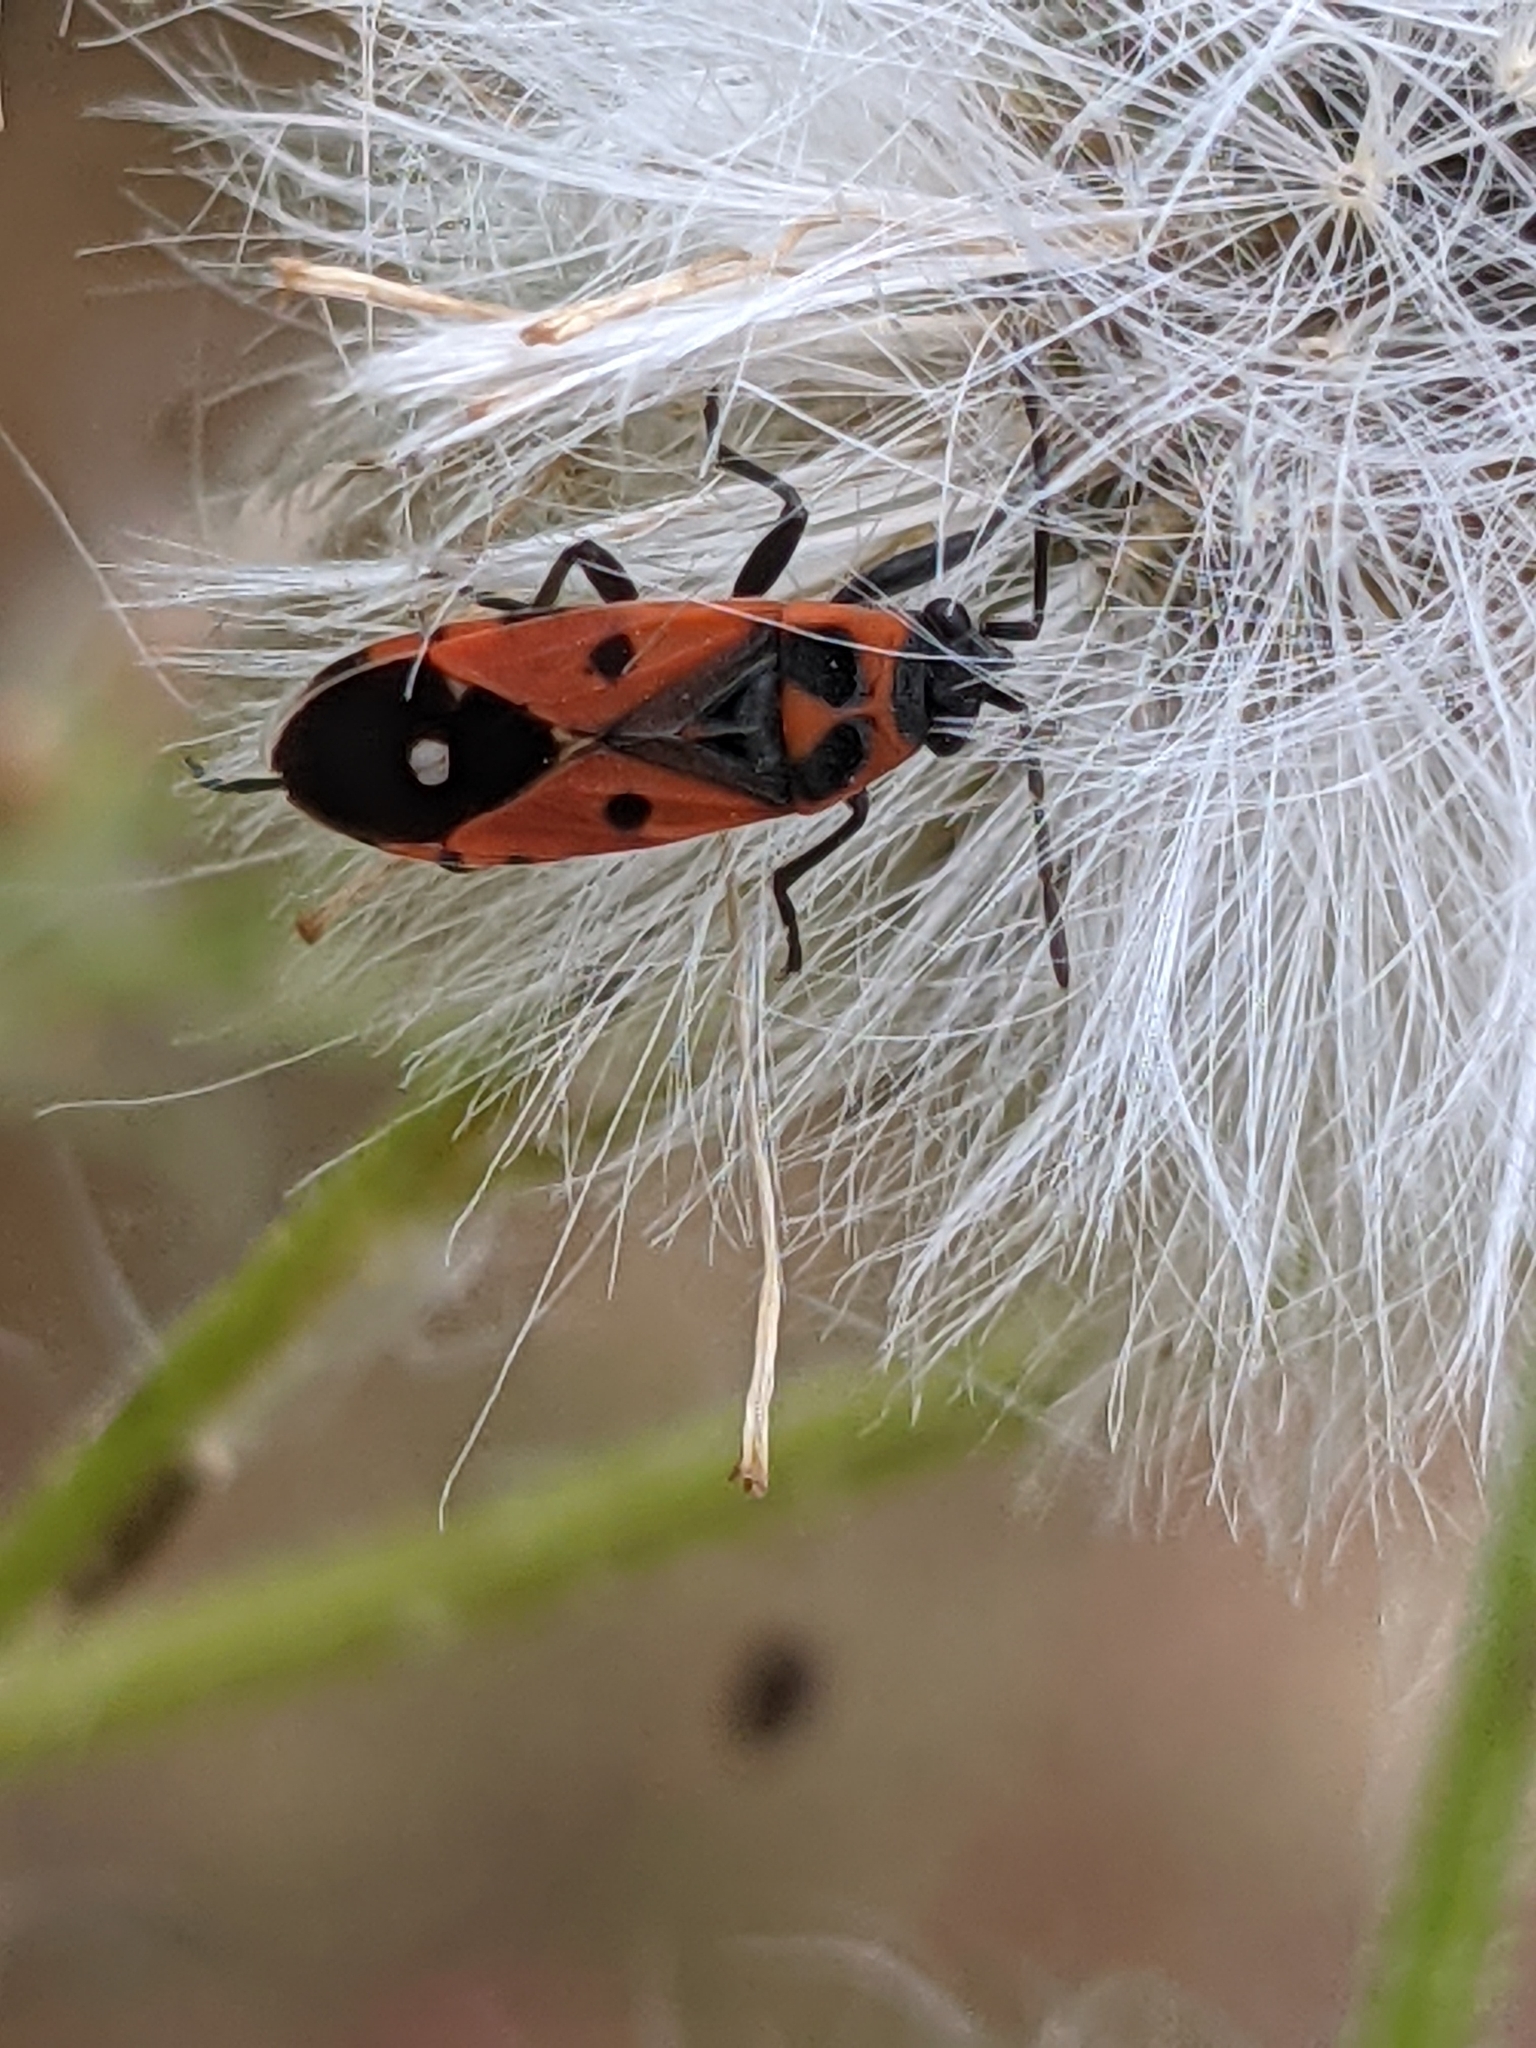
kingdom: Animalia
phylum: Arthropoda
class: Insecta
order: Hemiptera
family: Lygaeidae
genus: Melanocoryphus
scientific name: Melanocoryphus albomaculatus
